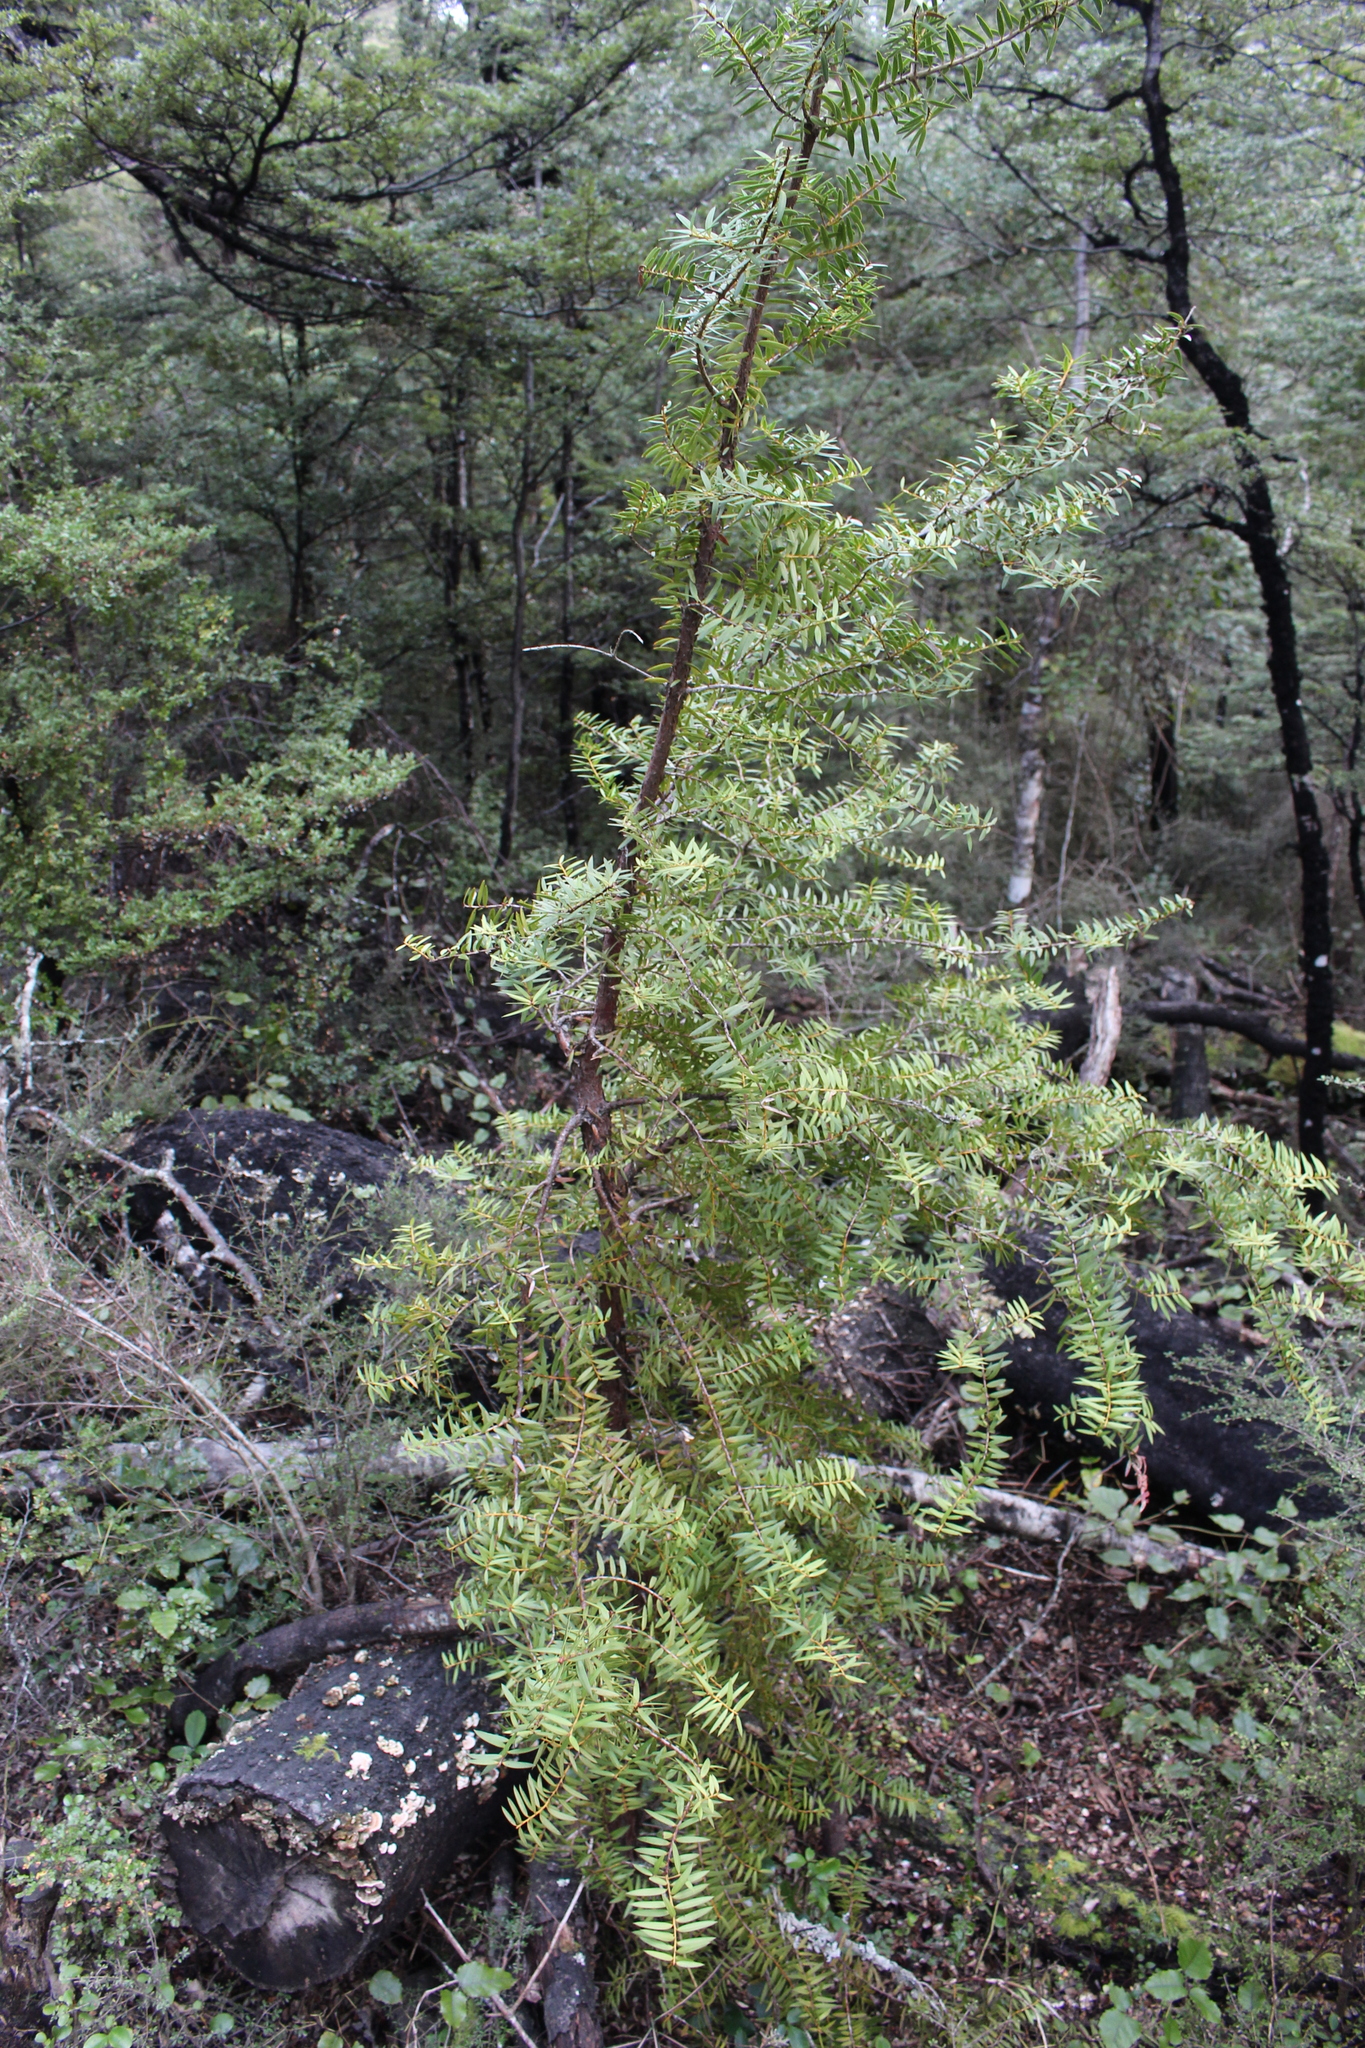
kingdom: Plantae
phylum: Tracheophyta
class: Pinopsida
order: Pinales
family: Podocarpaceae
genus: Podocarpus
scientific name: Podocarpus laetus
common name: Hall's totara
